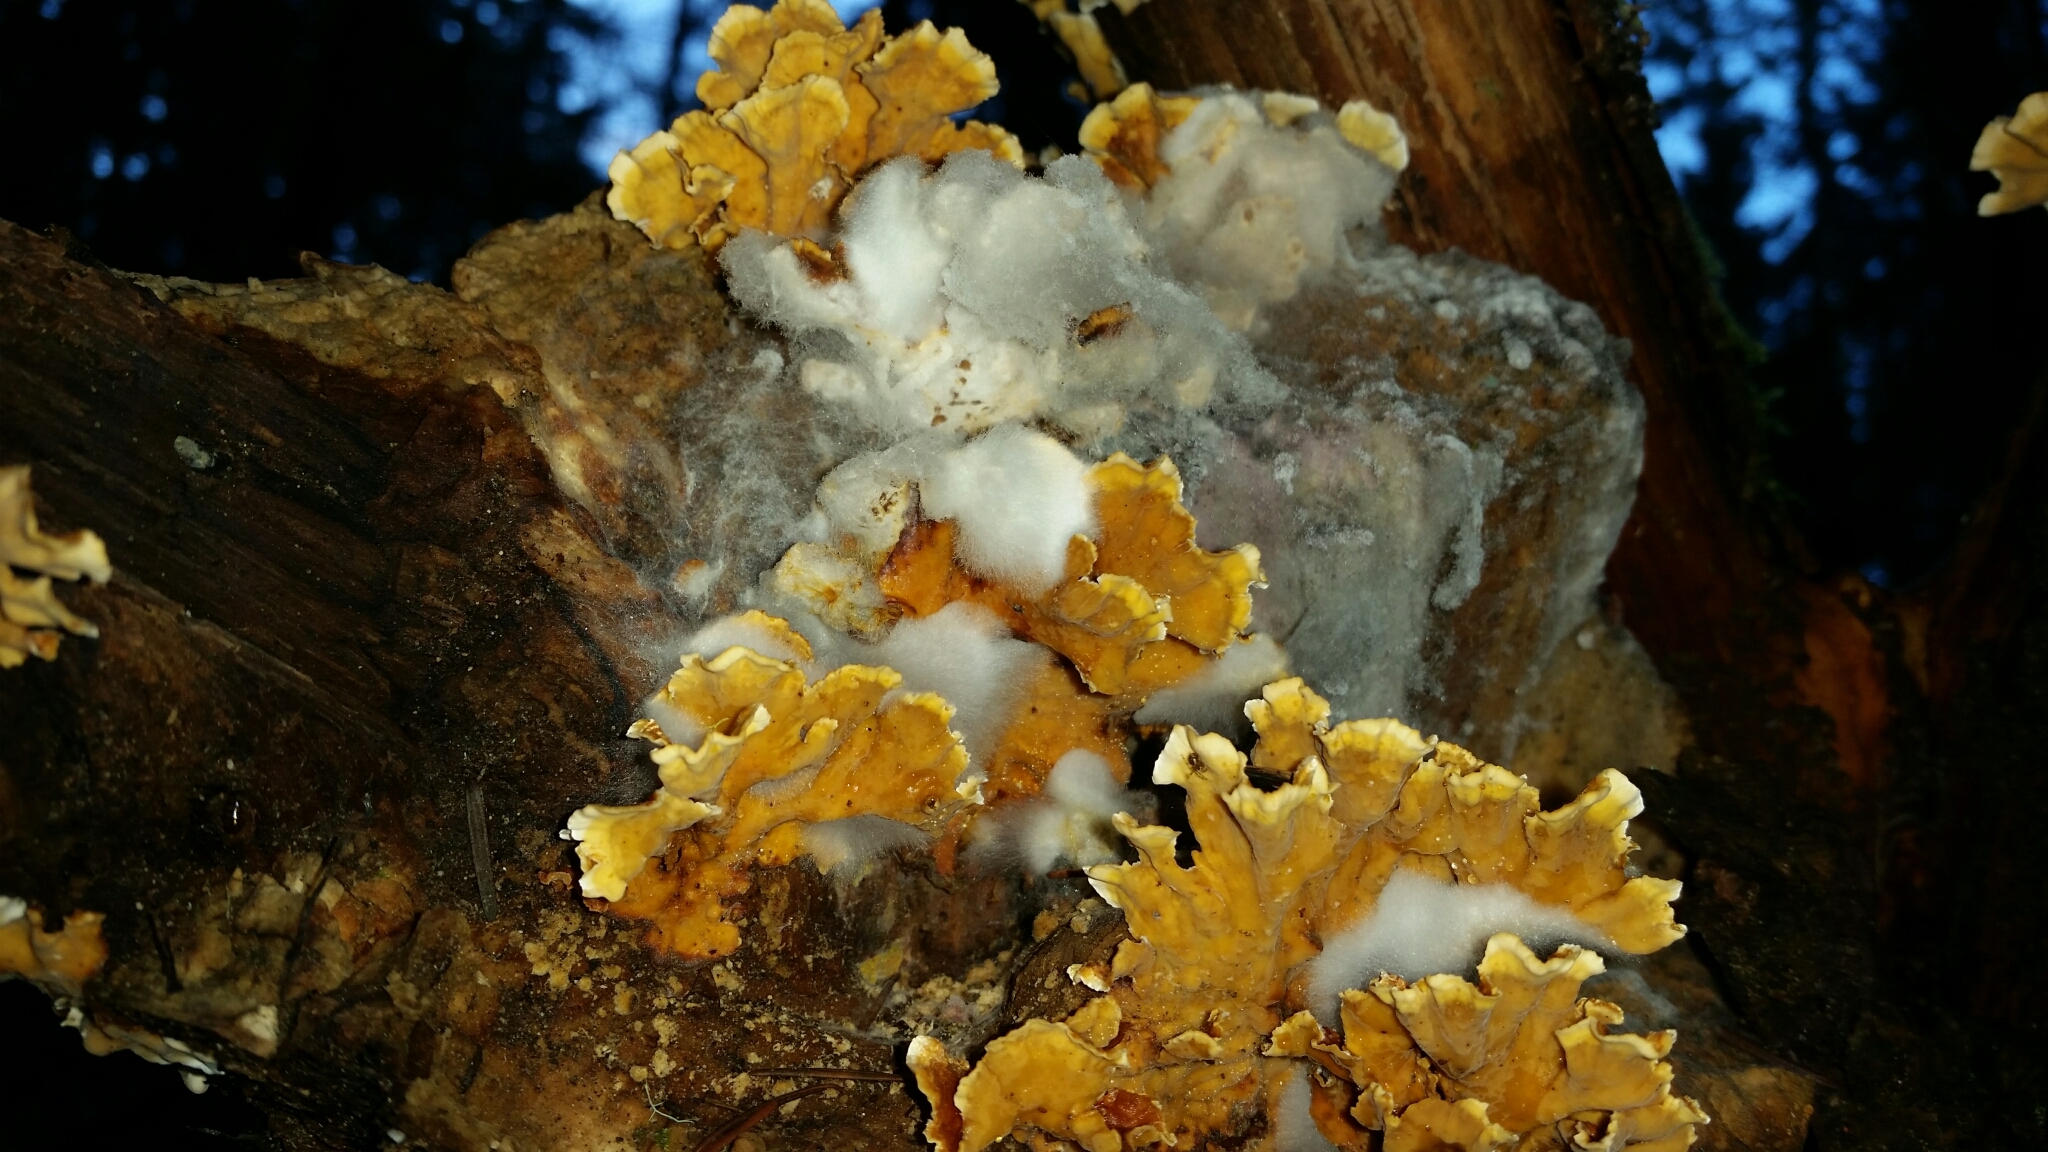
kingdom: Fungi
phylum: Basidiomycota
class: Agaricomycetes
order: Russulales
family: Stereaceae
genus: Stereum
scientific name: Stereum hirsutum
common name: Hairy curtain crust
